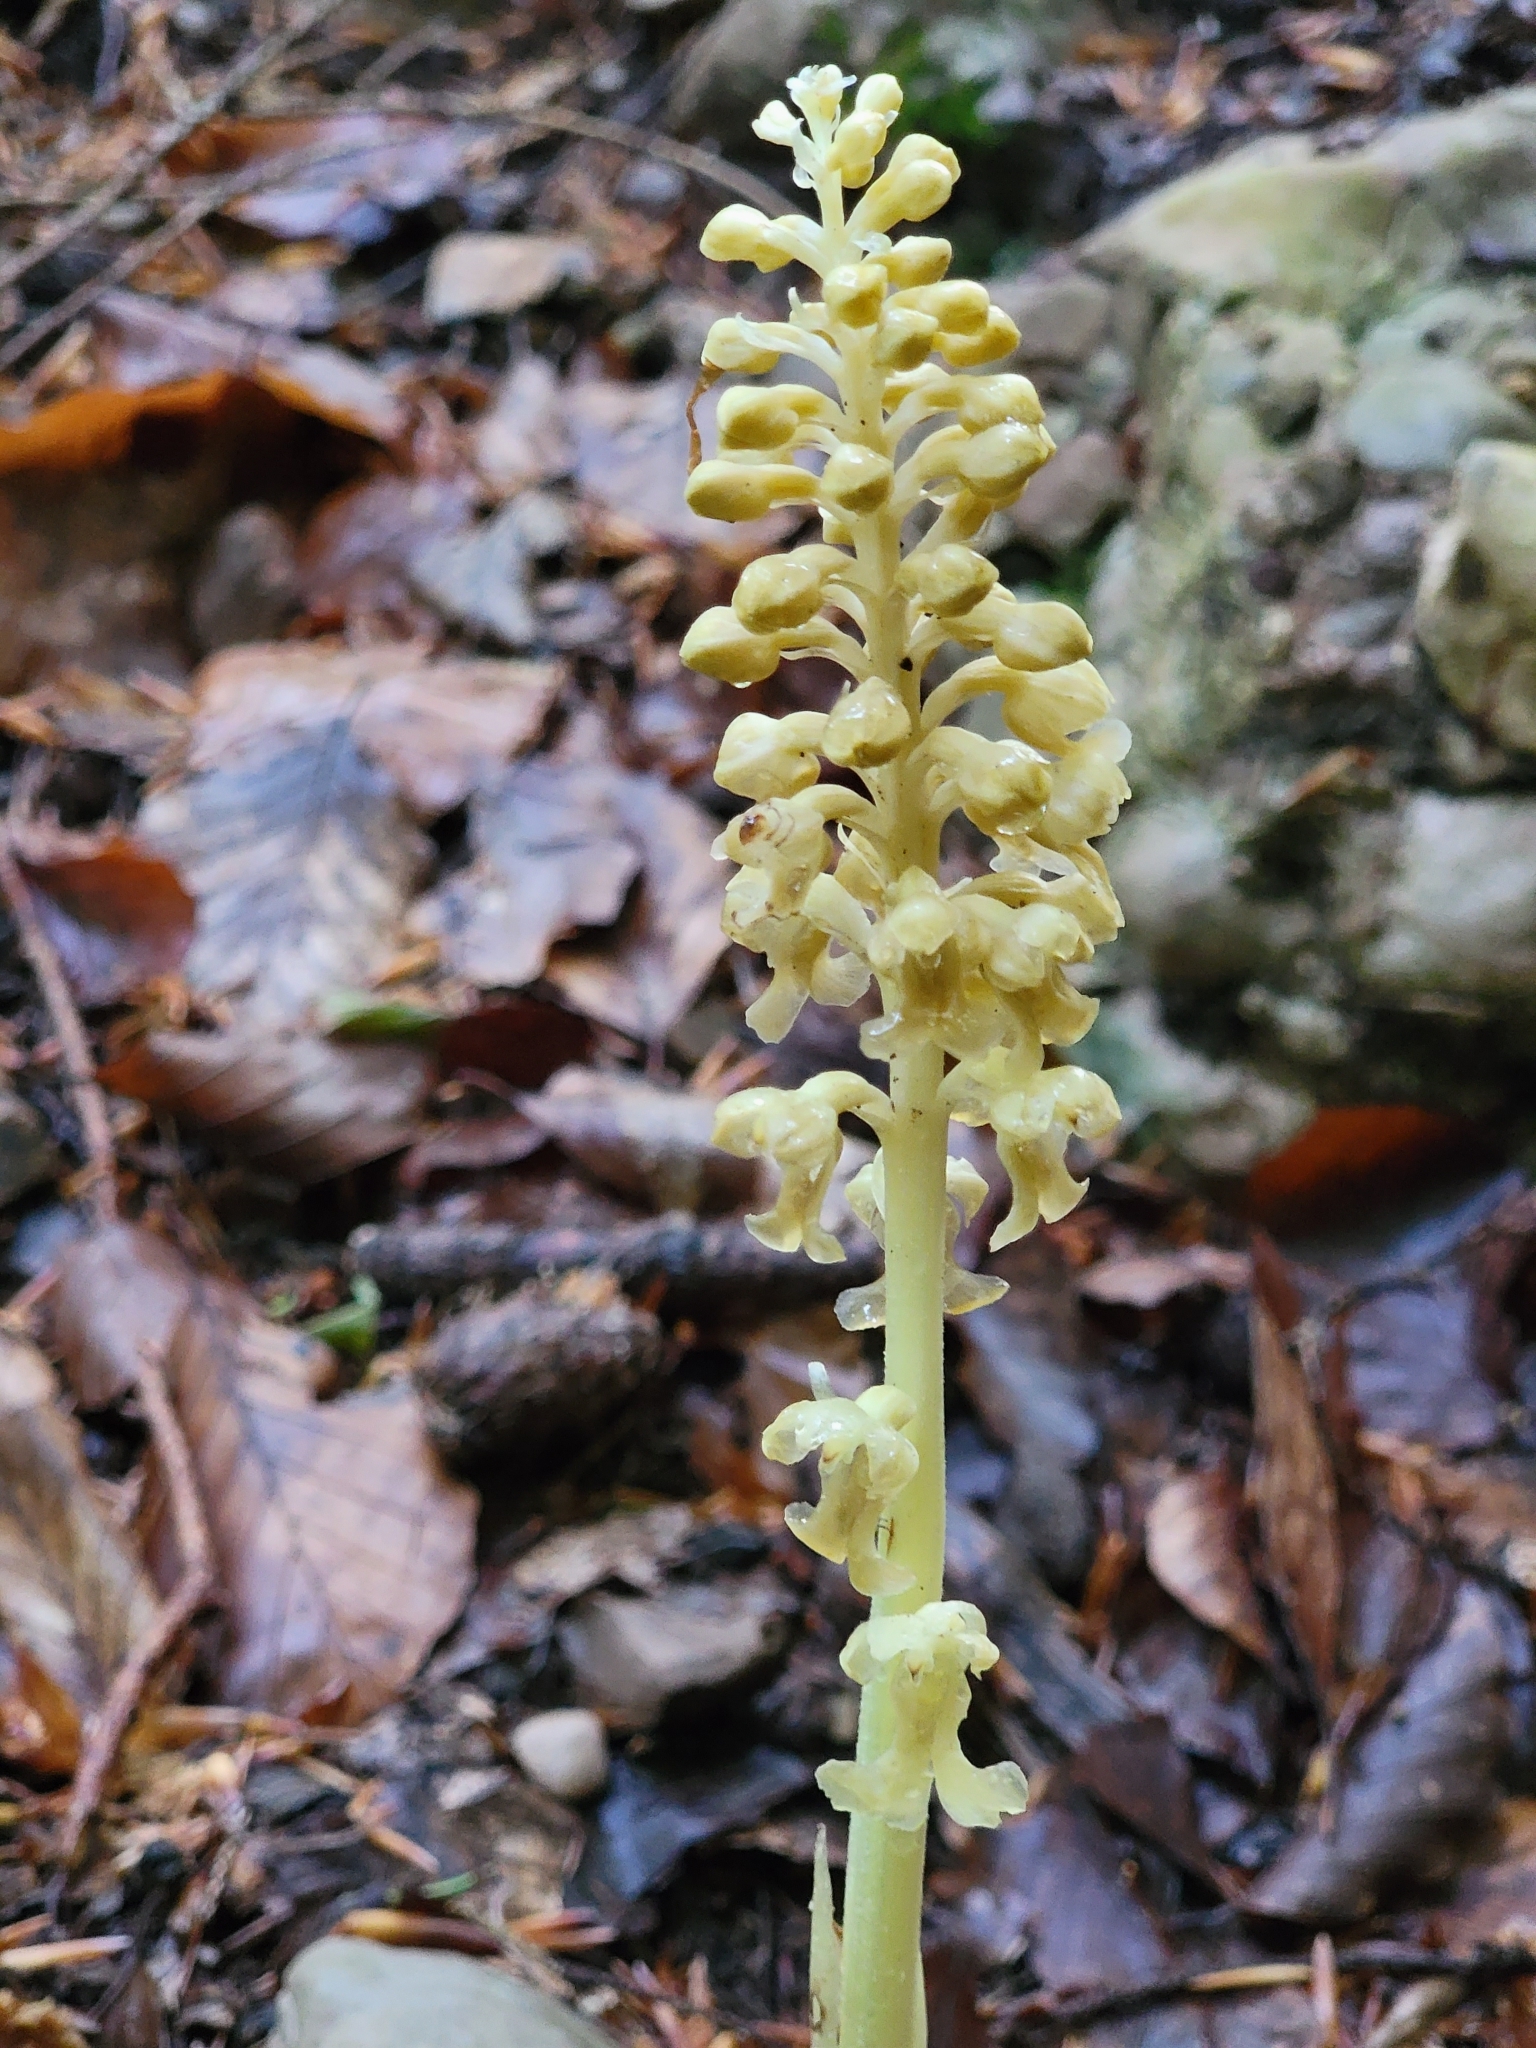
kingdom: Plantae
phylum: Tracheophyta
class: Liliopsida
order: Asparagales
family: Orchidaceae
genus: Neottia
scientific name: Neottia nidus-avis
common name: Bird's-nest orchid
